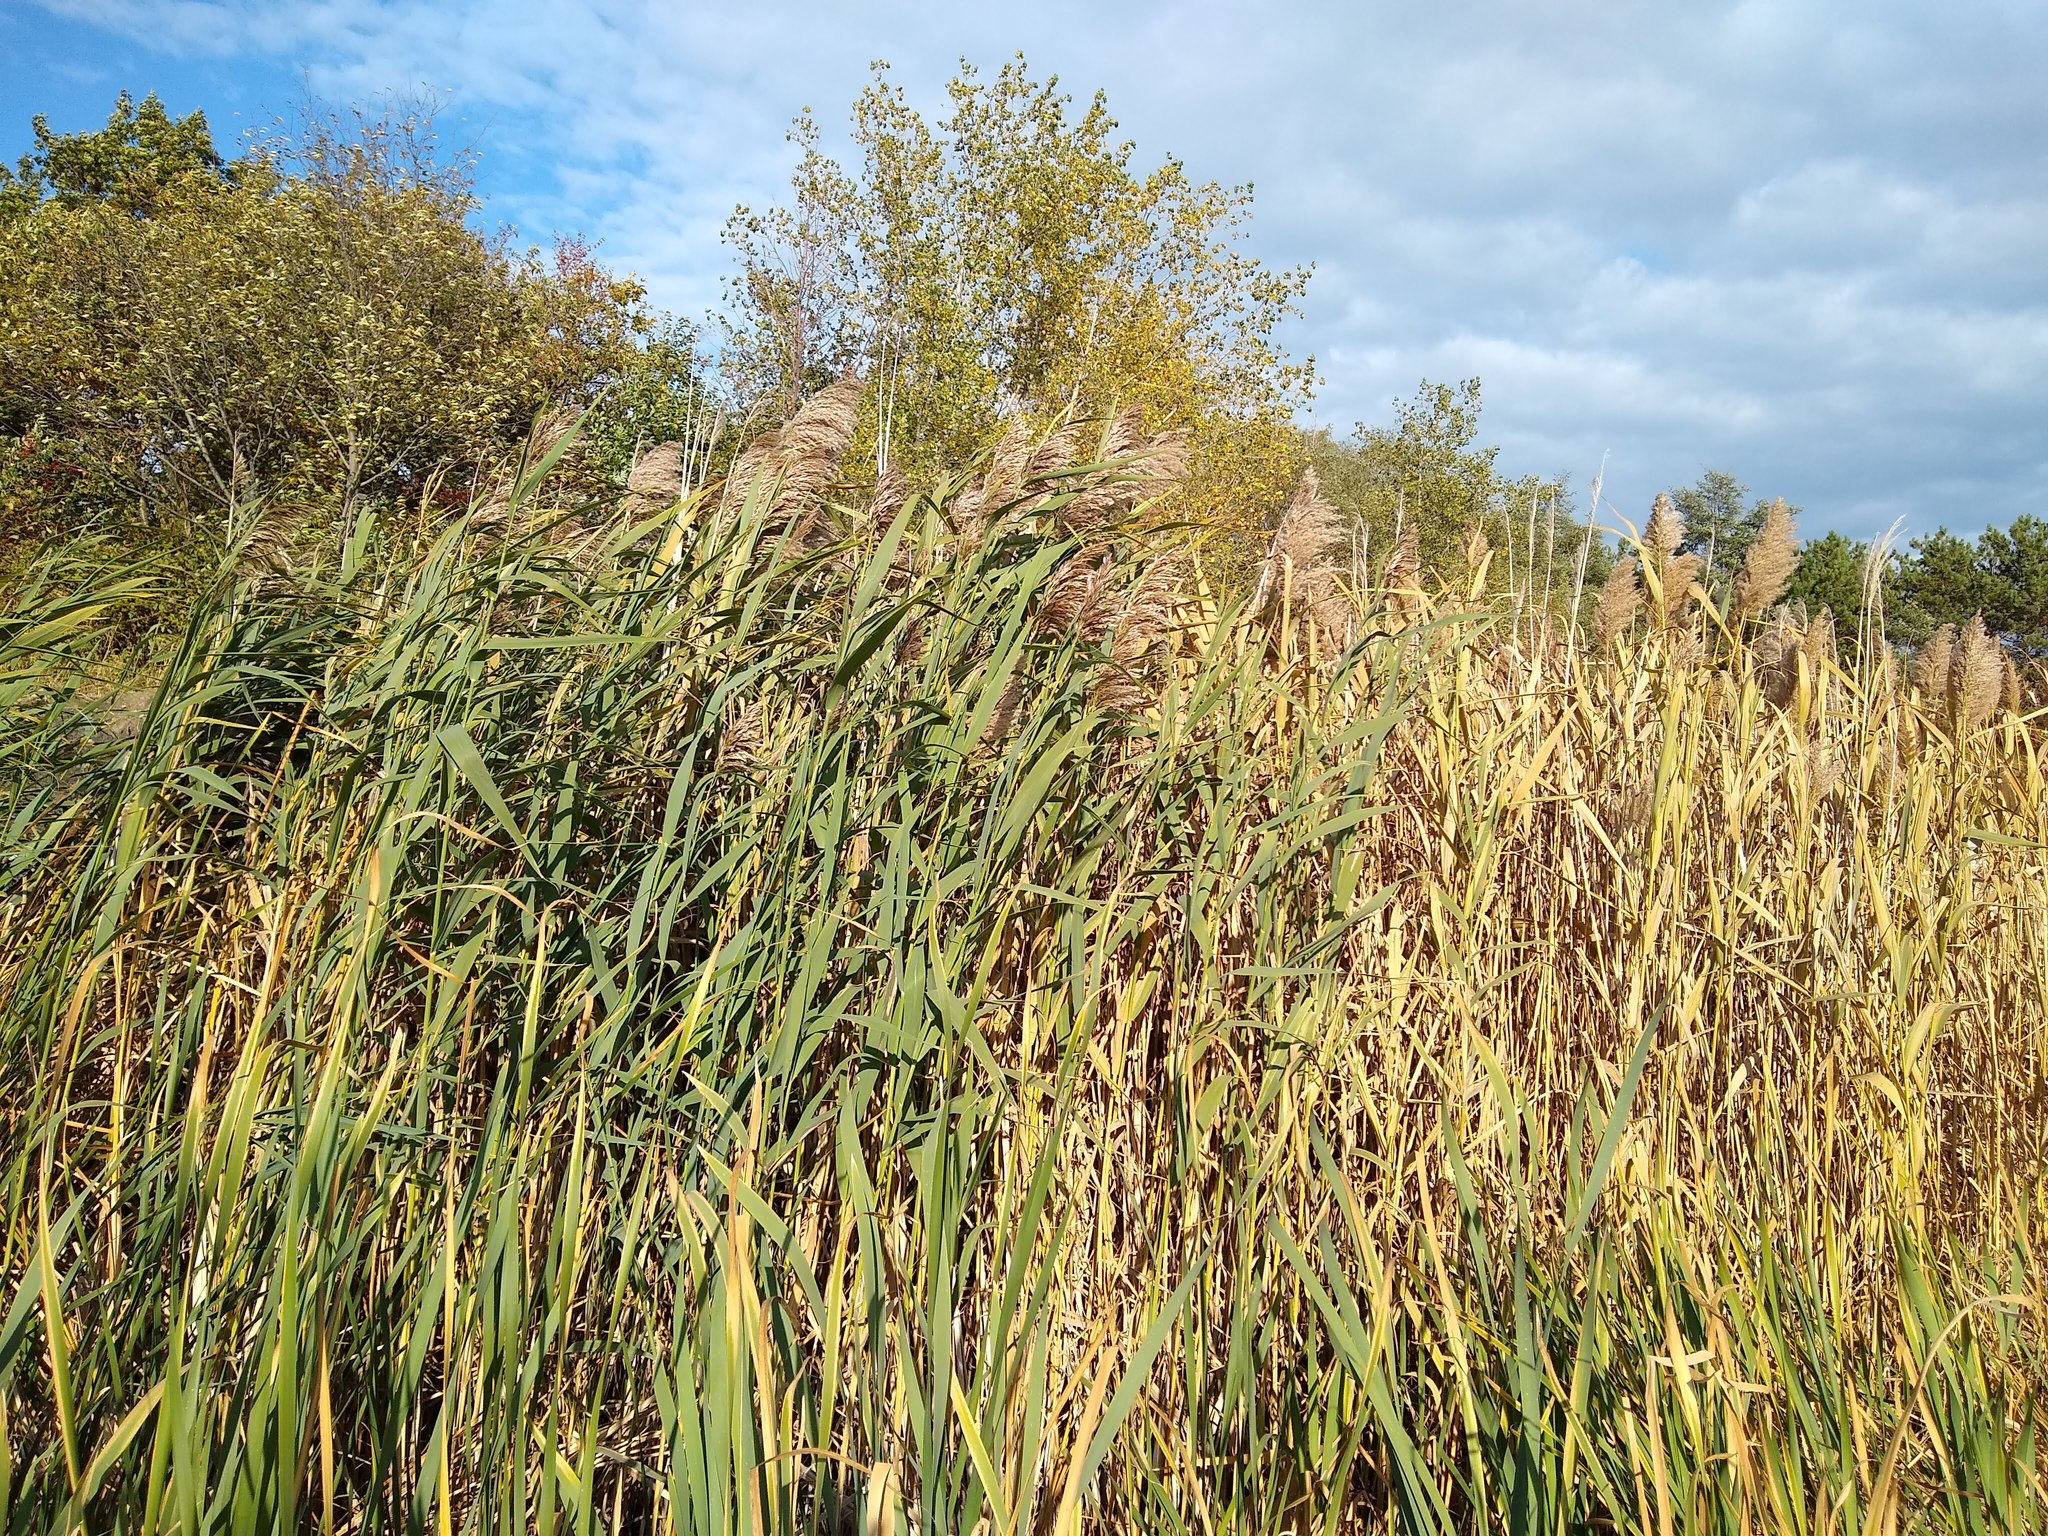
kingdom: Plantae
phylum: Tracheophyta
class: Liliopsida
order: Poales
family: Poaceae
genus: Phragmites
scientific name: Phragmites australis
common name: Common reed
